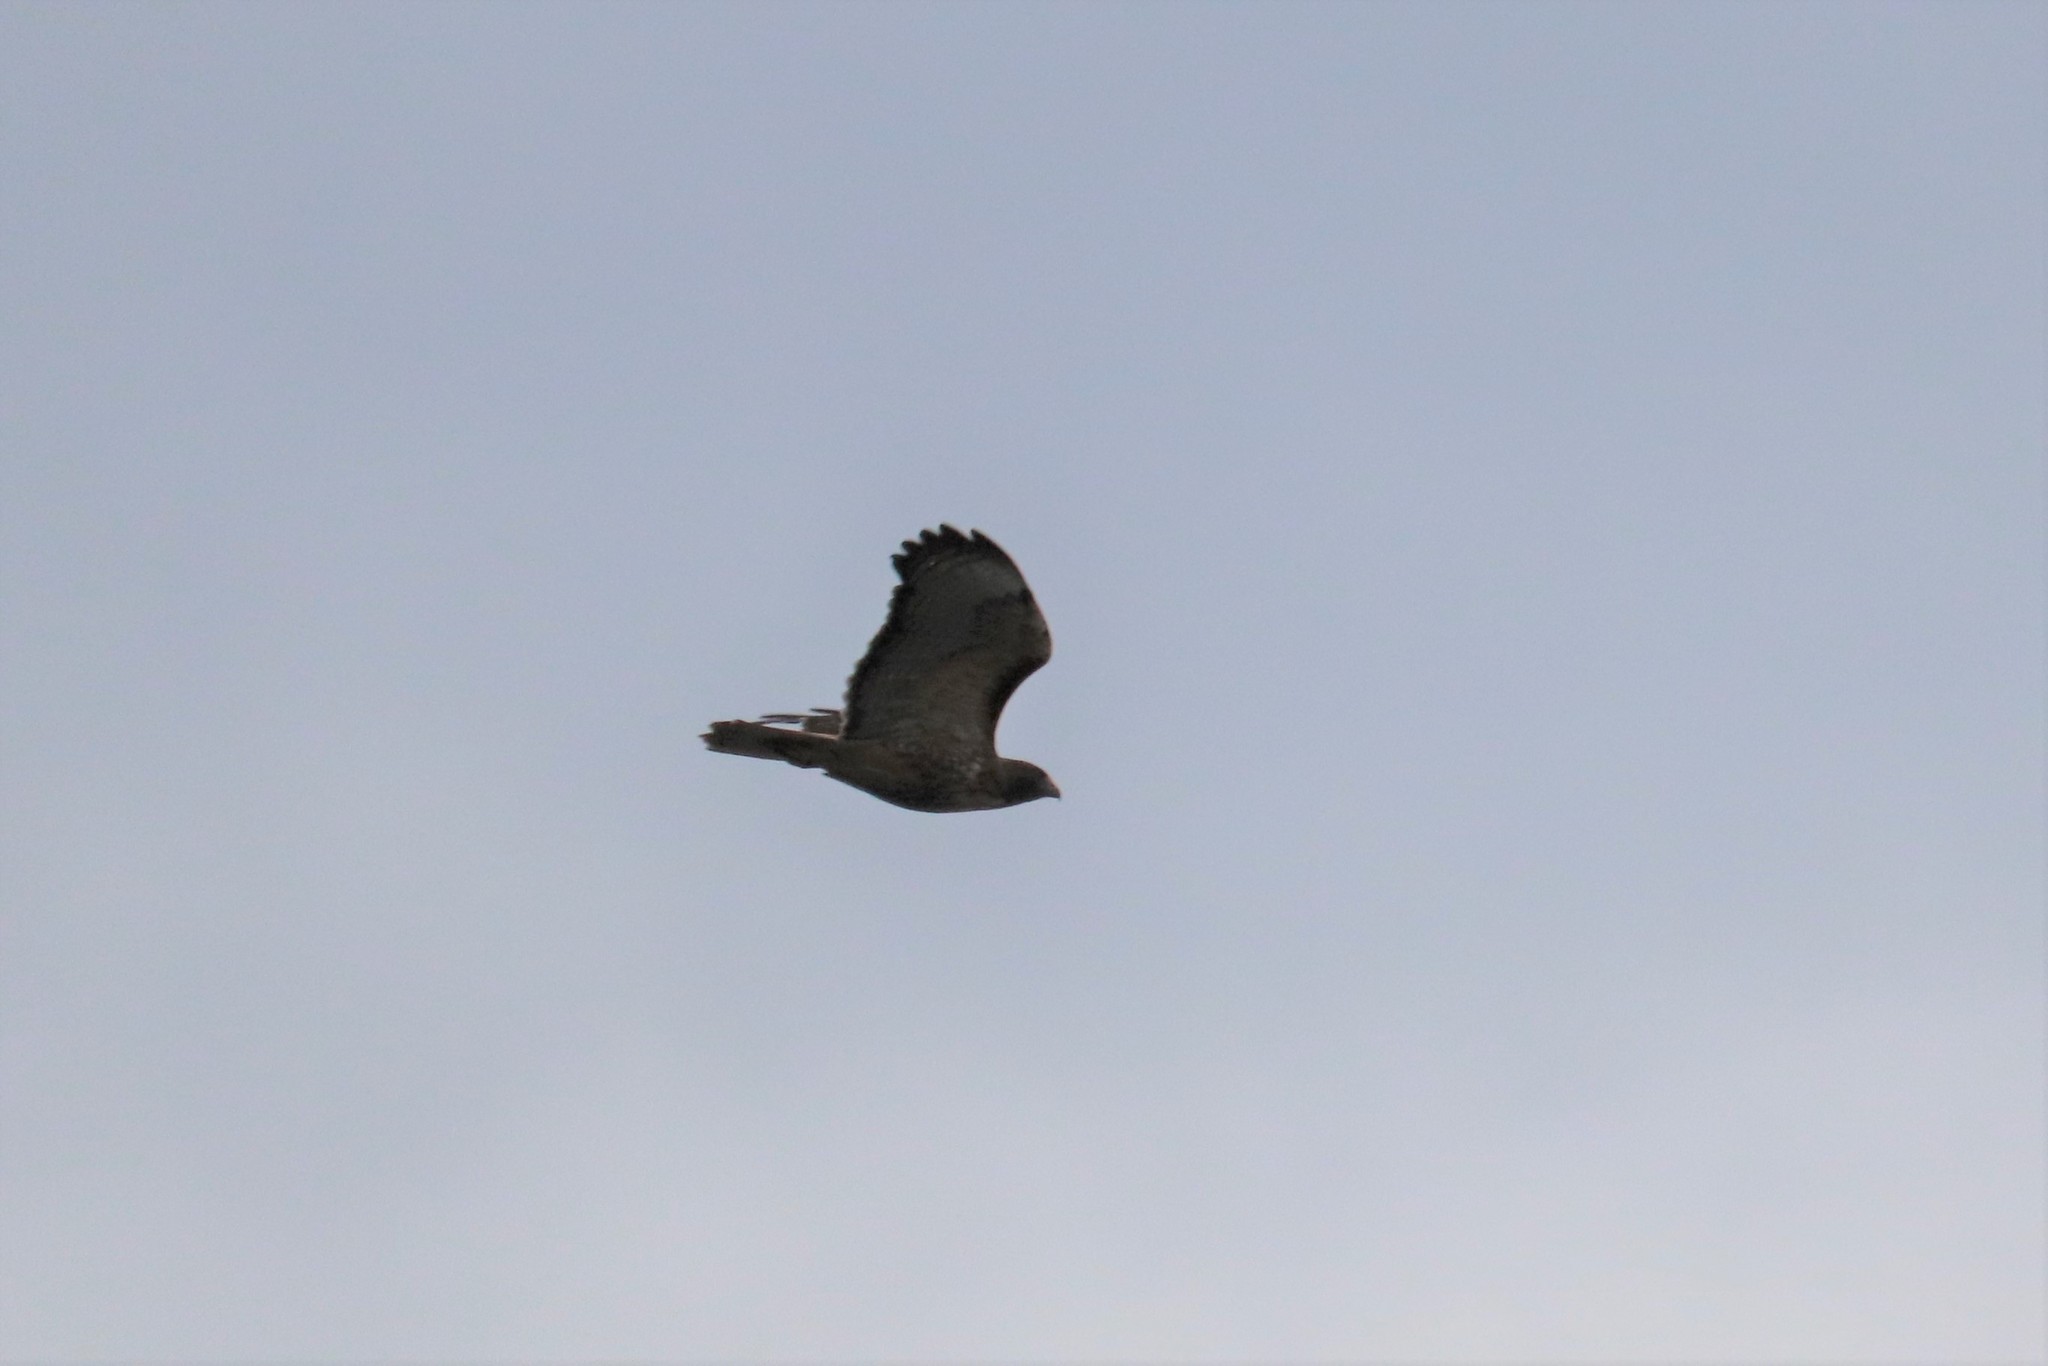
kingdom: Animalia
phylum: Chordata
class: Aves
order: Accipitriformes
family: Accipitridae
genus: Buteo
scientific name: Buteo jamaicensis
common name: Red-tailed hawk
